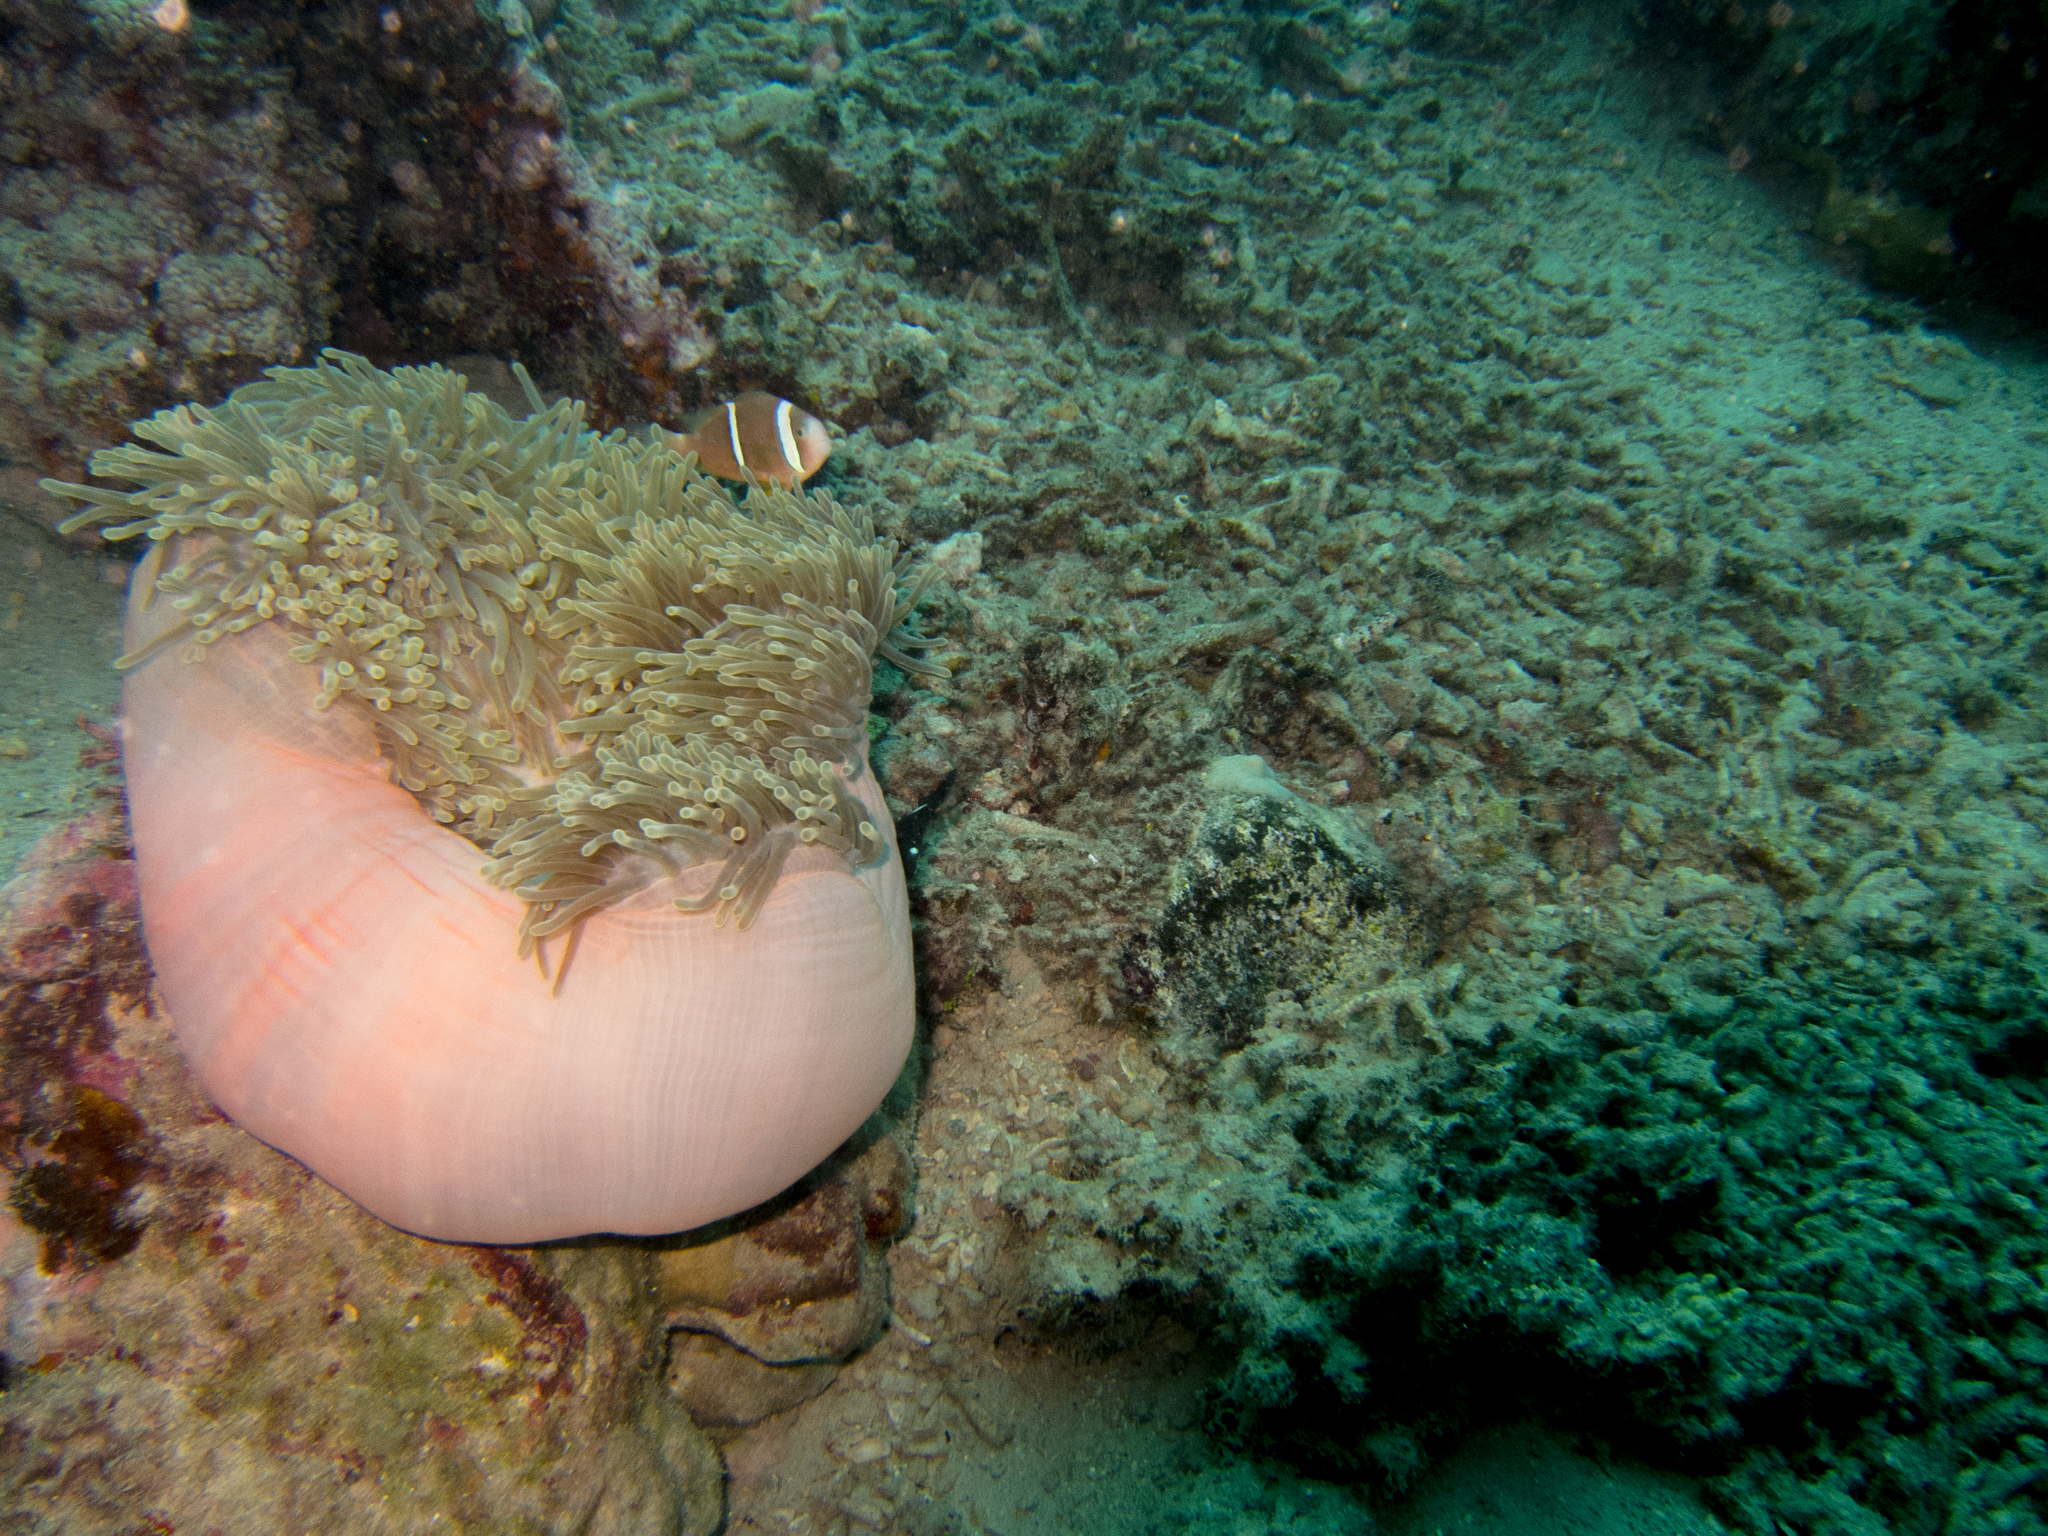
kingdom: Animalia
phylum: Cnidaria
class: Anthozoa
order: Actiniaria
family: Stichodactylidae
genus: Radianthus
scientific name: Radianthus magnifica
